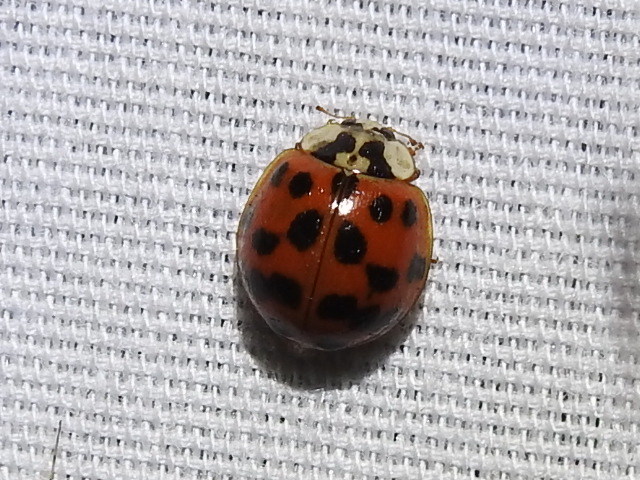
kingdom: Animalia
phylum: Arthropoda
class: Insecta
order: Coleoptera
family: Coccinellidae
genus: Harmonia
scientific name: Harmonia axyridis
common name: Harlequin ladybird
